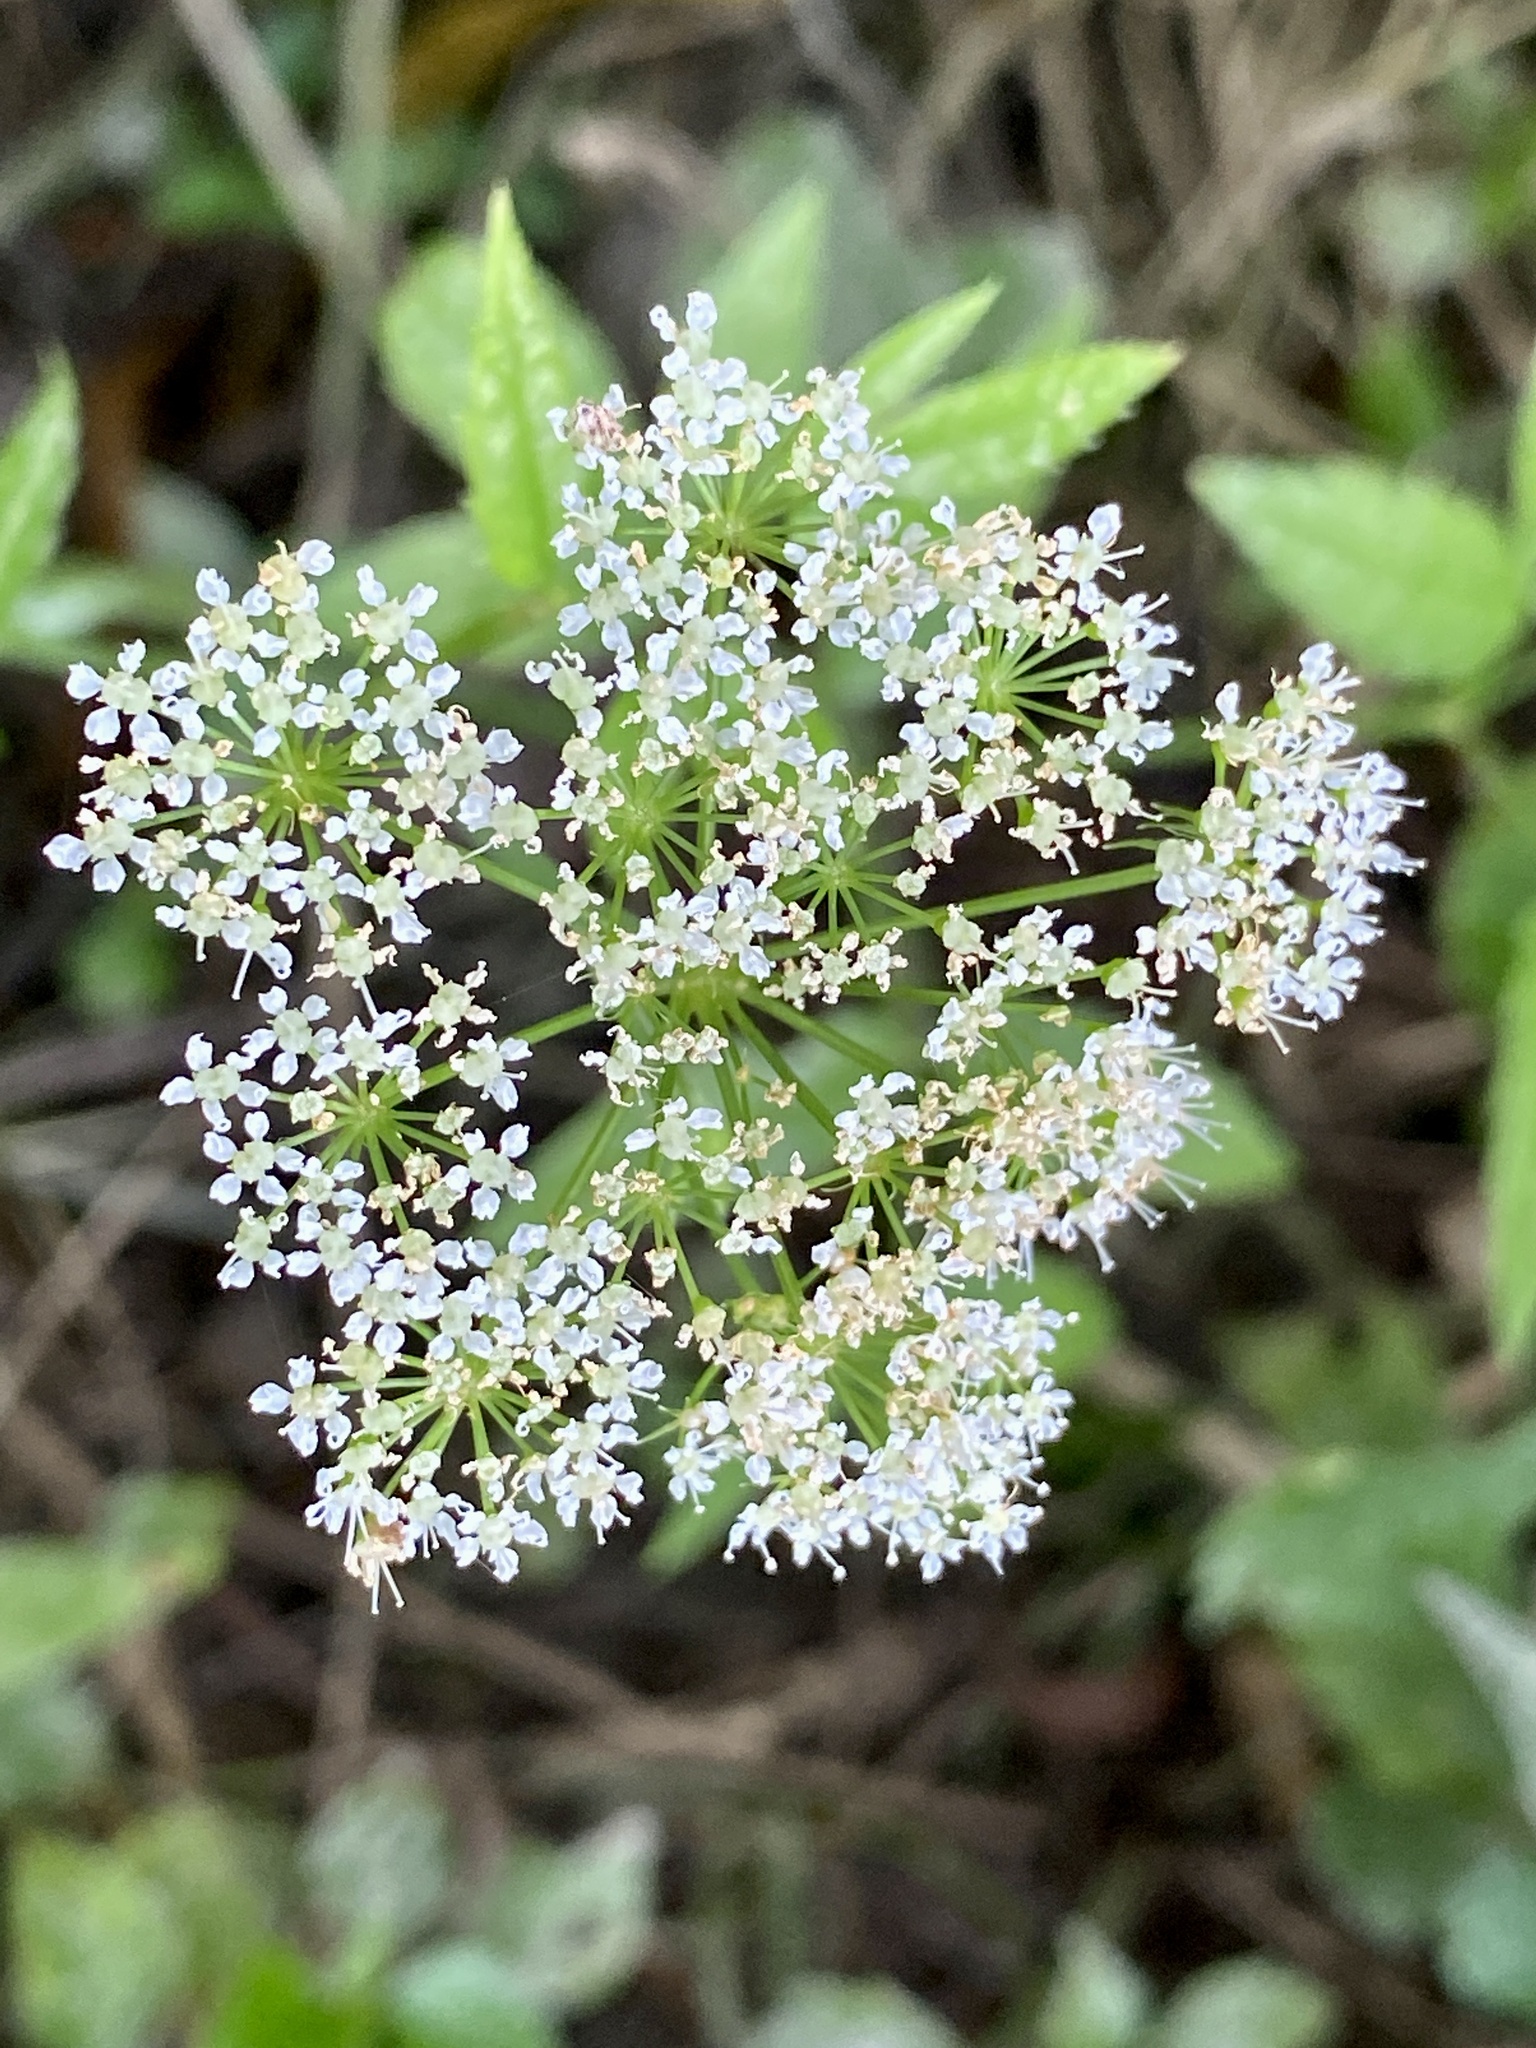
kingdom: Plantae
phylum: Tracheophyta
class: Magnoliopsida
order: Apiales
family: Apiaceae
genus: Cicuta
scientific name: Cicuta maculata
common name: Spotted cowbane
